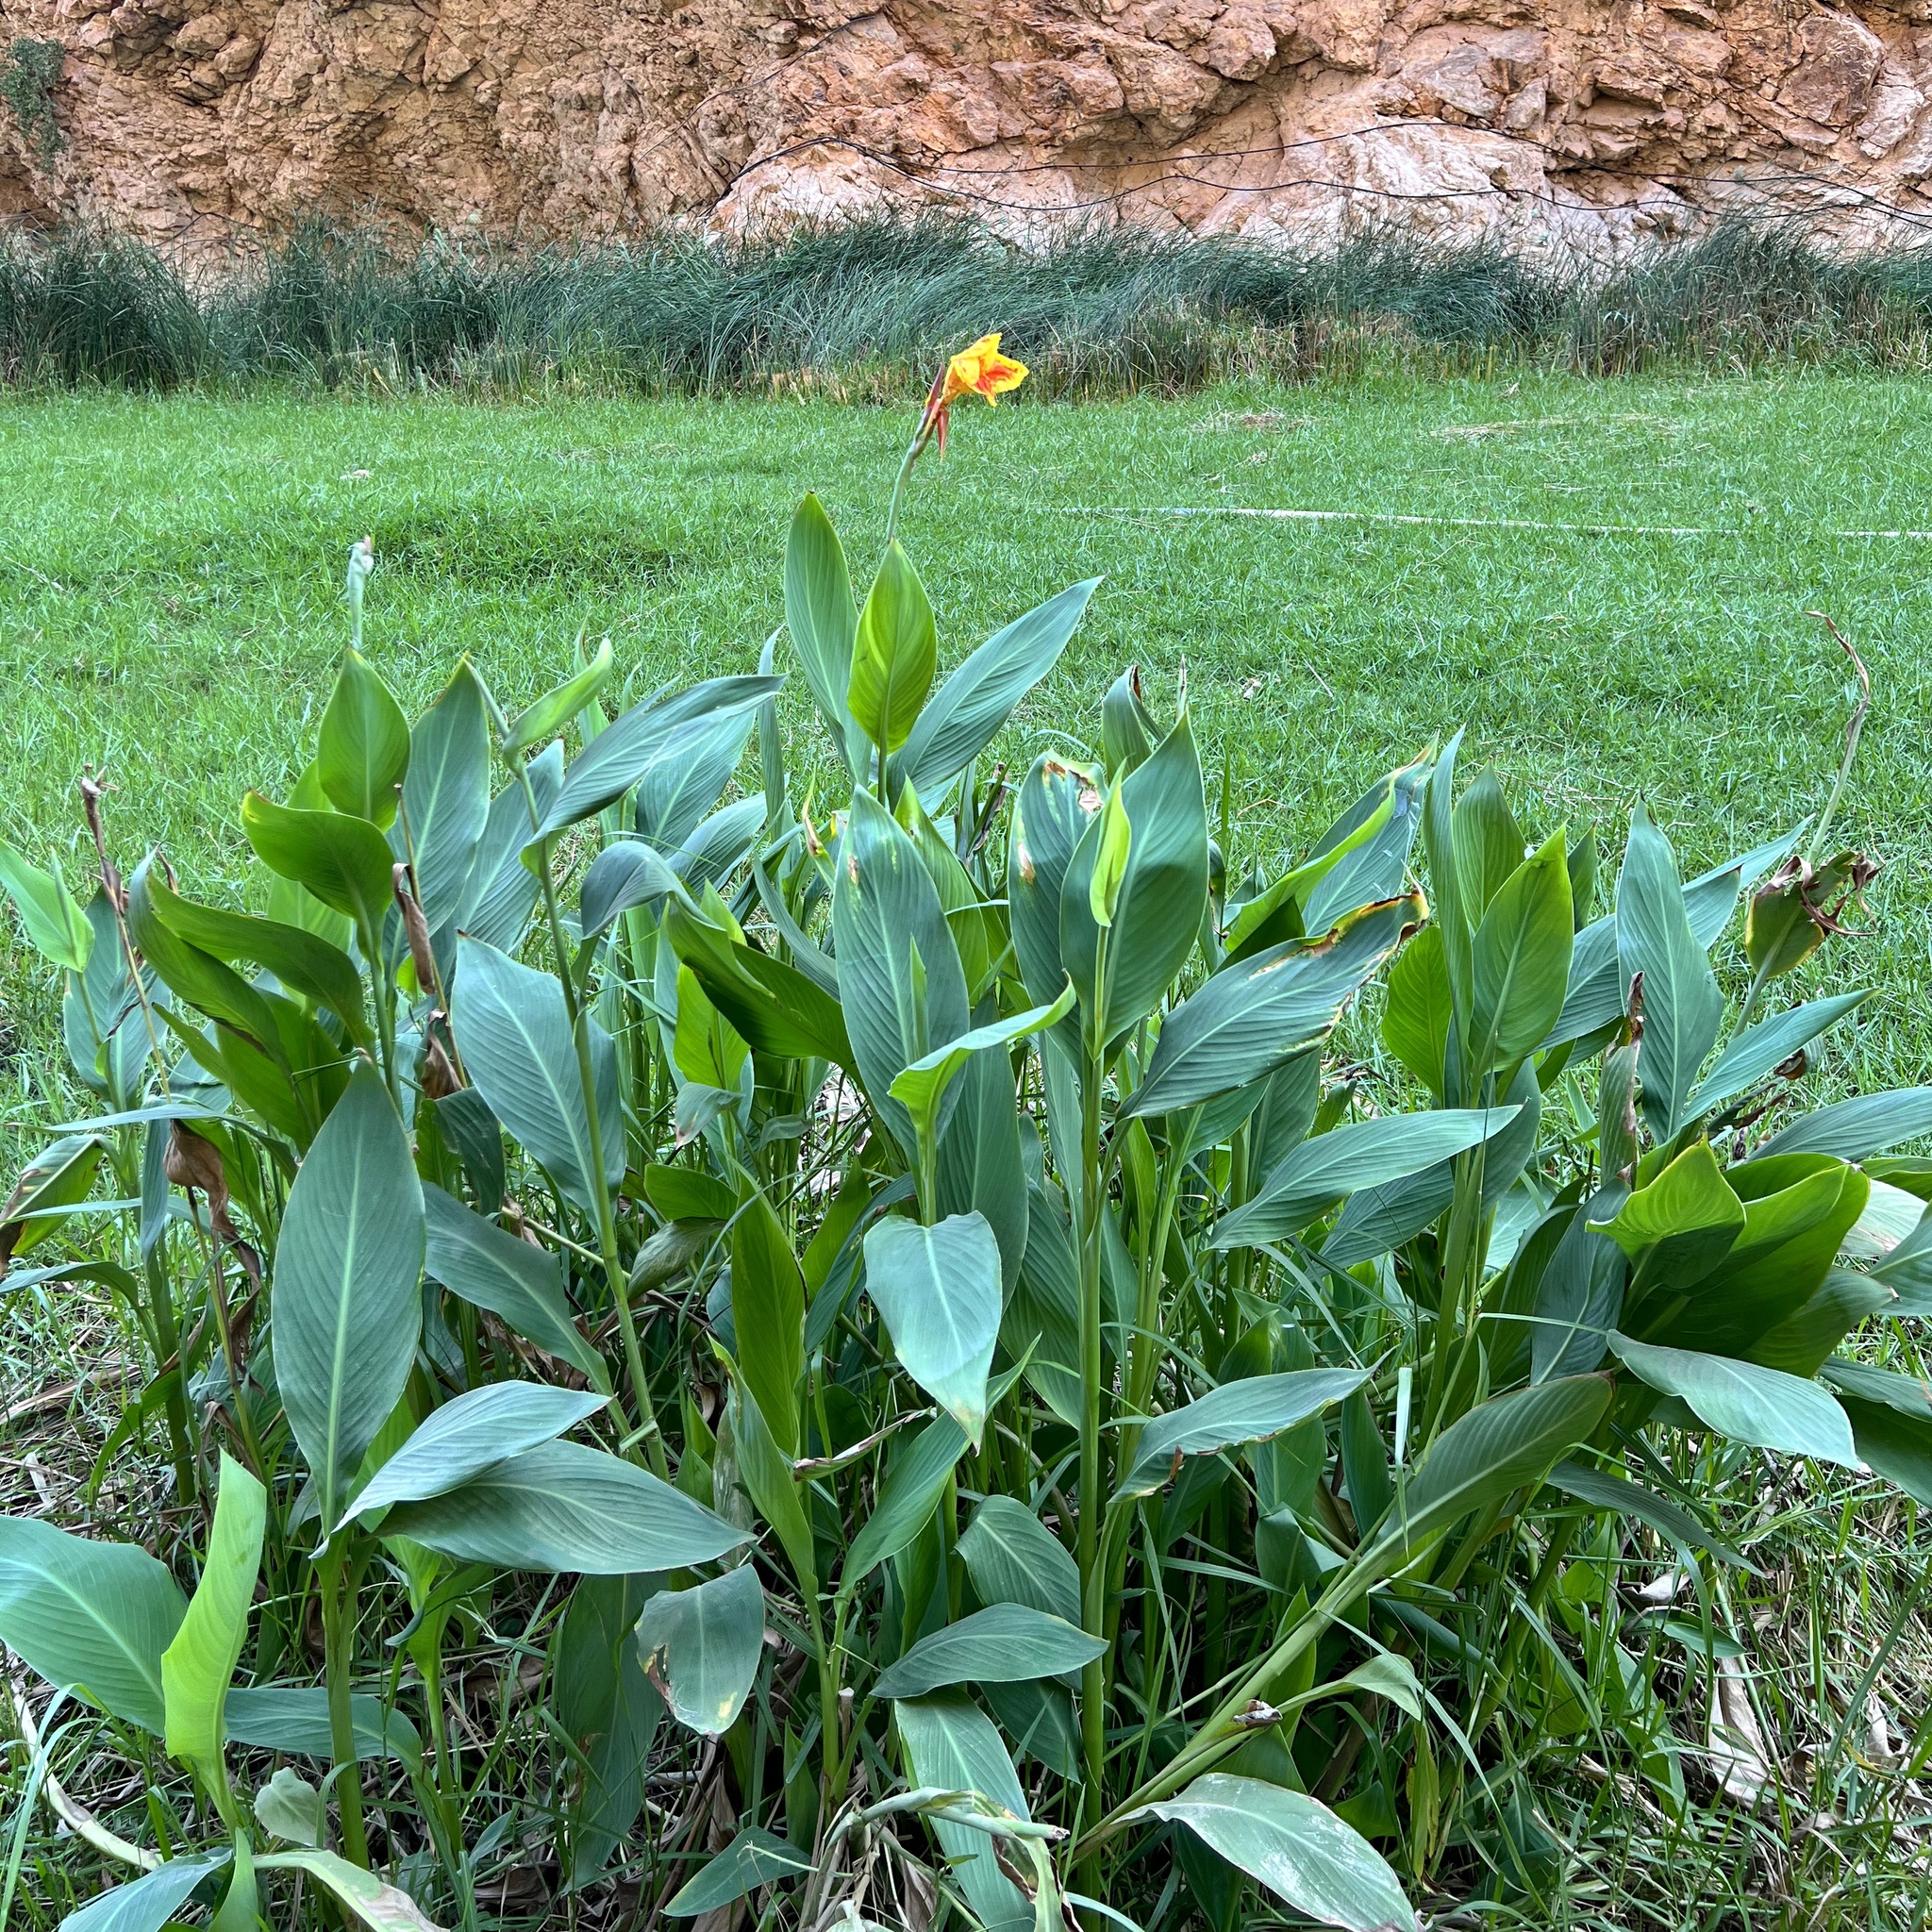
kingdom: Plantae
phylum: Tracheophyta
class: Liliopsida
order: Zingiberales
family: Cannaceae
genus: Canna
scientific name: Canna hybrida
